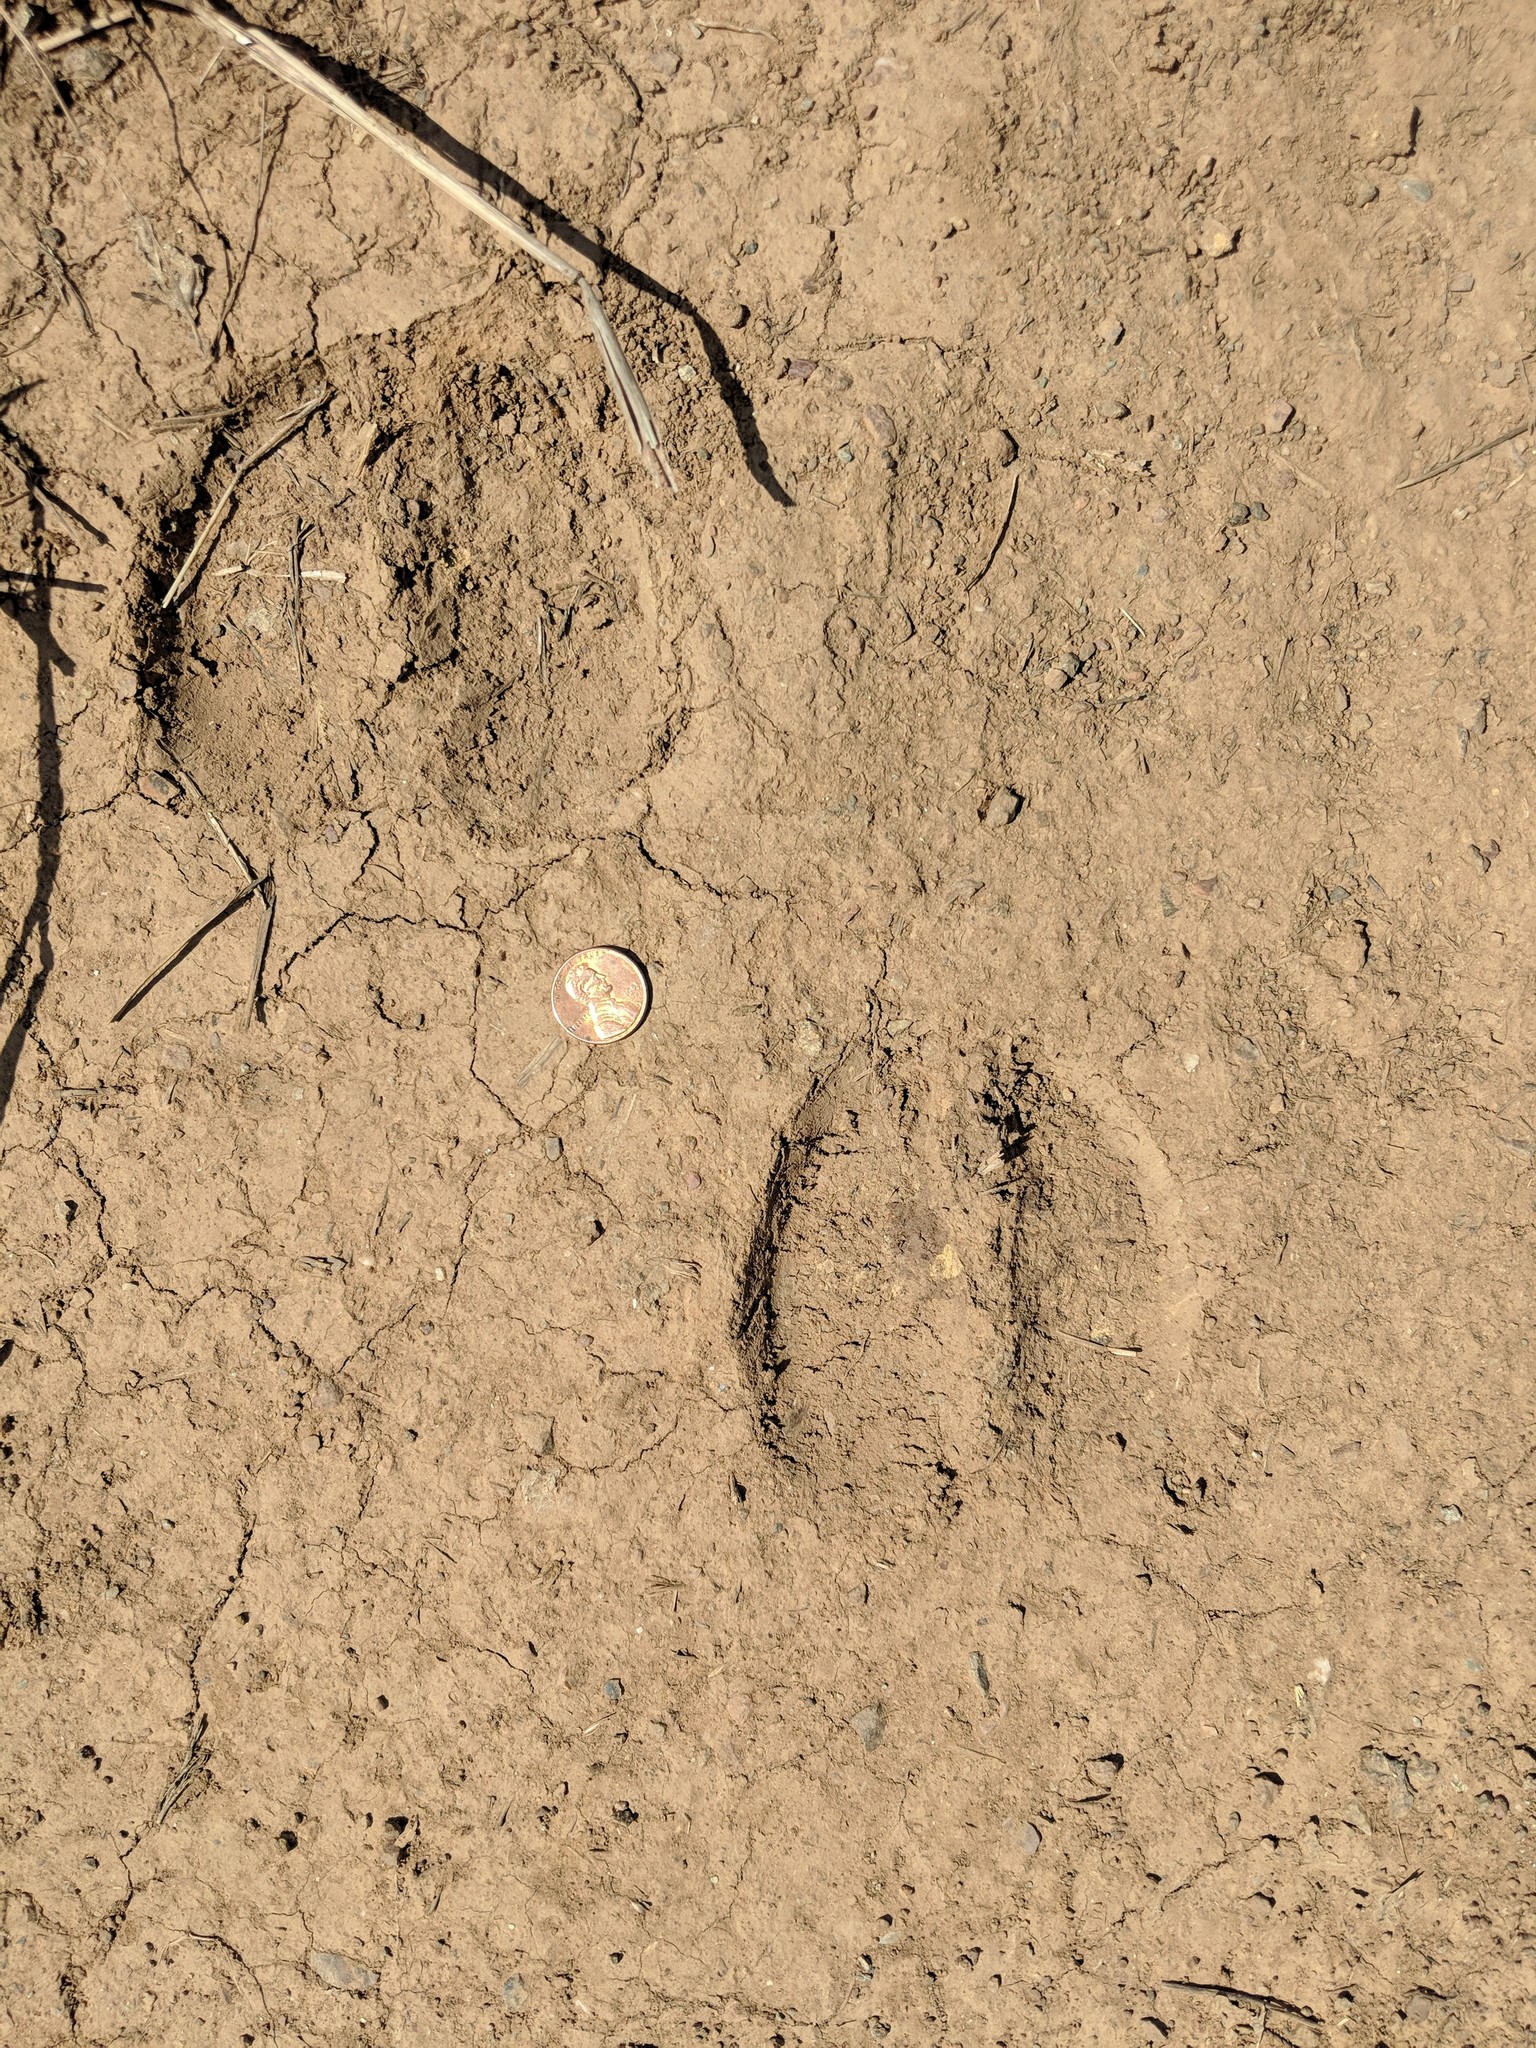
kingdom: Animalia
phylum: Chordata
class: Mammalia
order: Artiodactyla
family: Suidae
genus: Sus
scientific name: Sus scrofa
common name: Wild boar
